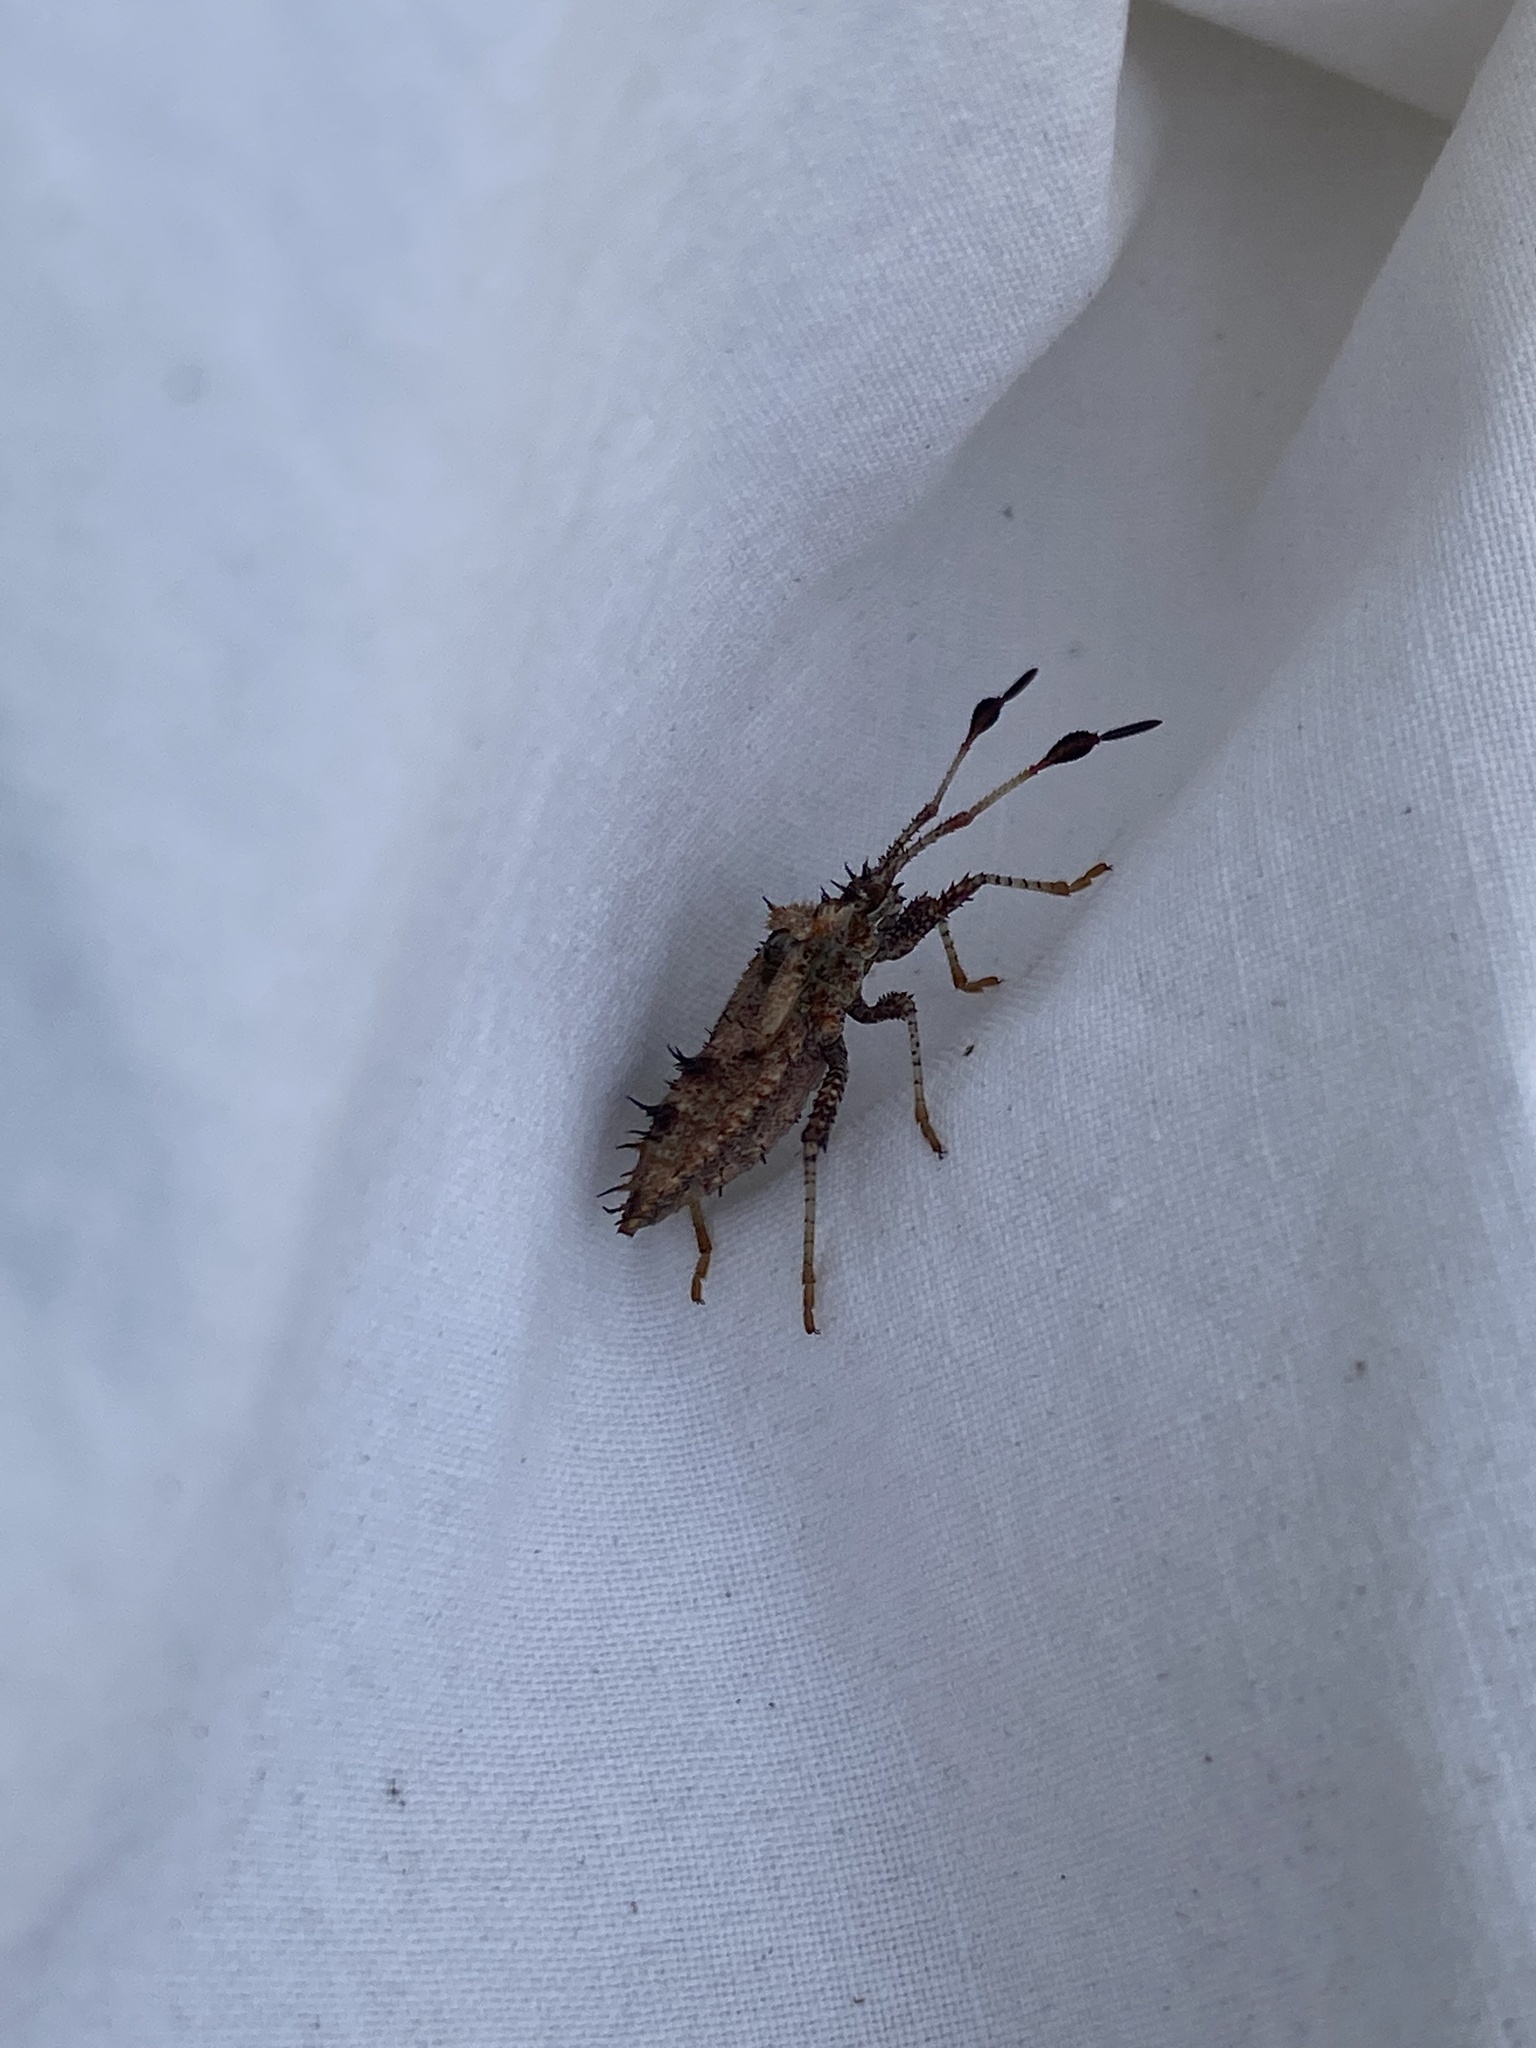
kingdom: Animalia
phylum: Arthropoda
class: Insecta
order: Hemiptera
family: Coreidae
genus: Euthochtha
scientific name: Euthochtha galeator
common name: Helmeted squash bug
